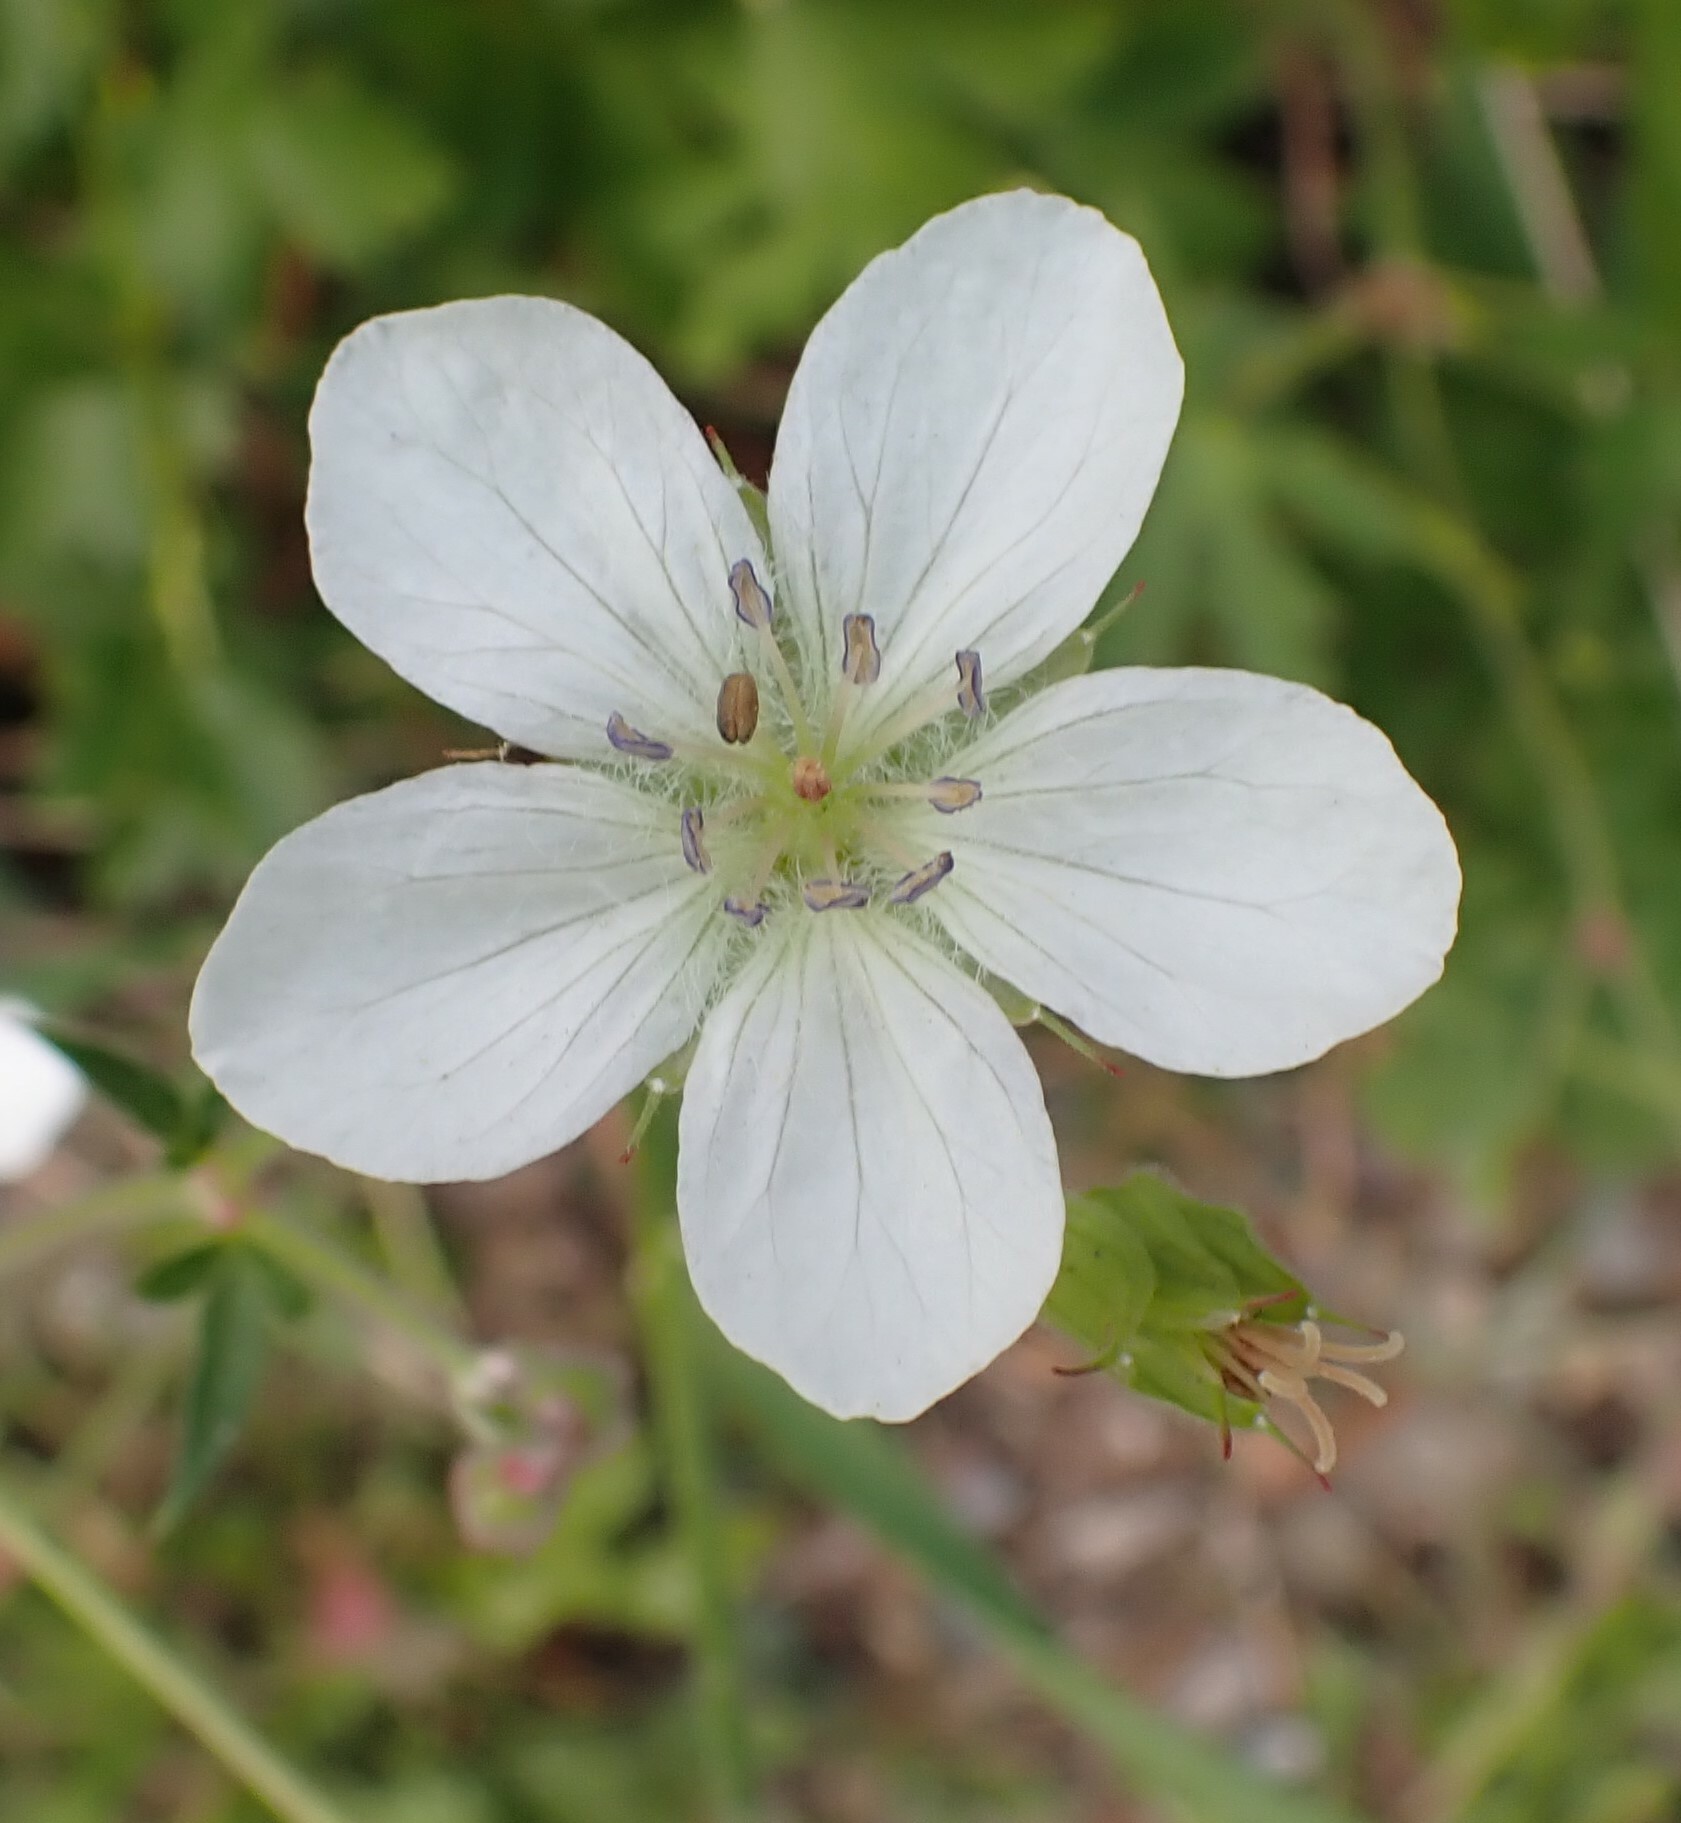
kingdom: Plantae
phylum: Tracheophyta
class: Magnoliopsida
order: Geraniales
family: Geraniaceae
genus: Geranium
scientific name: Geranium richardsonii
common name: Richardson's crane's-bill
